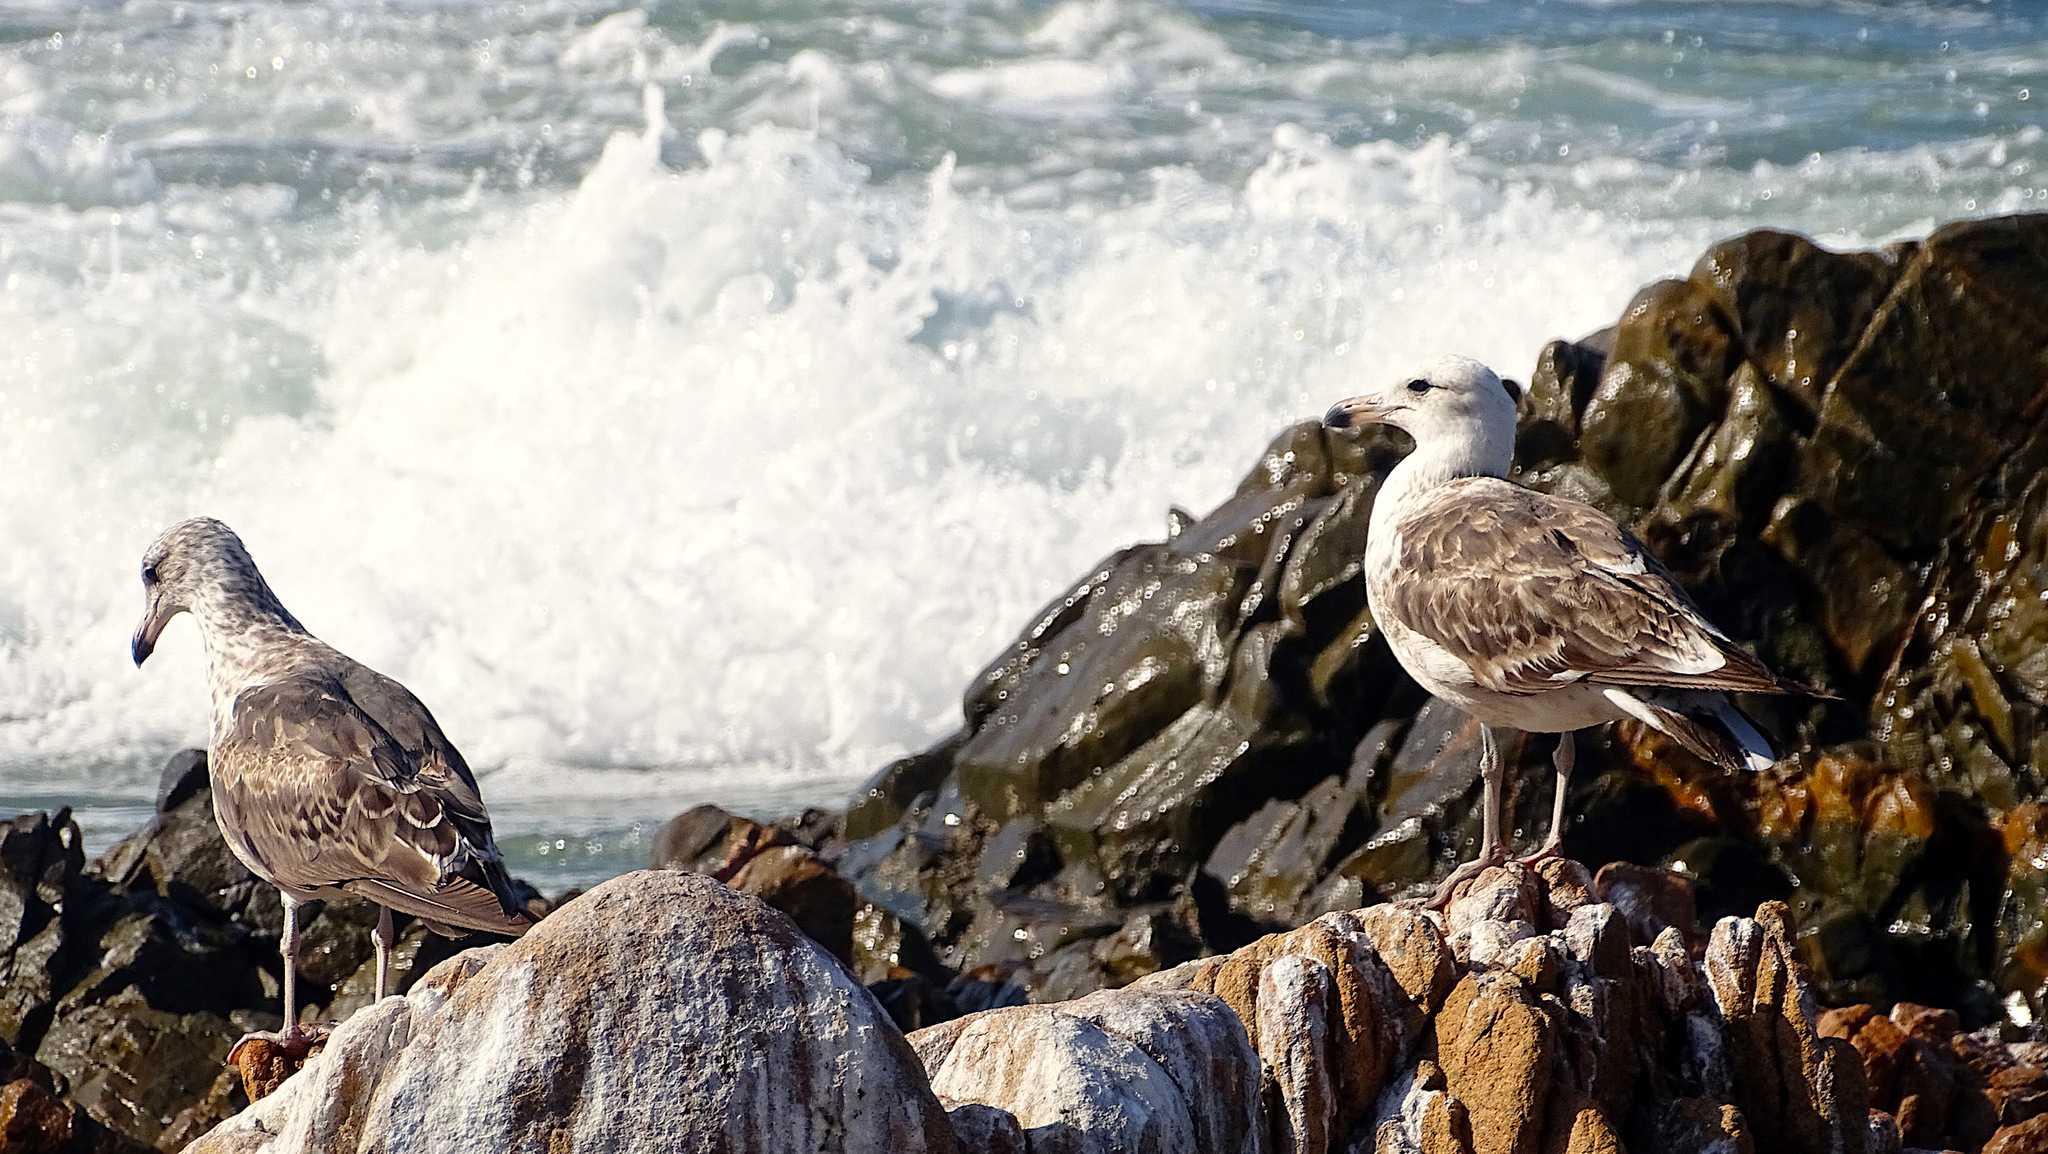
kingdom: Animalia
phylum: Chordata
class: Aves
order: Charadriiformes
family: Laridae
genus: Larus
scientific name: Larus belcheri
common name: Belcher's gull
